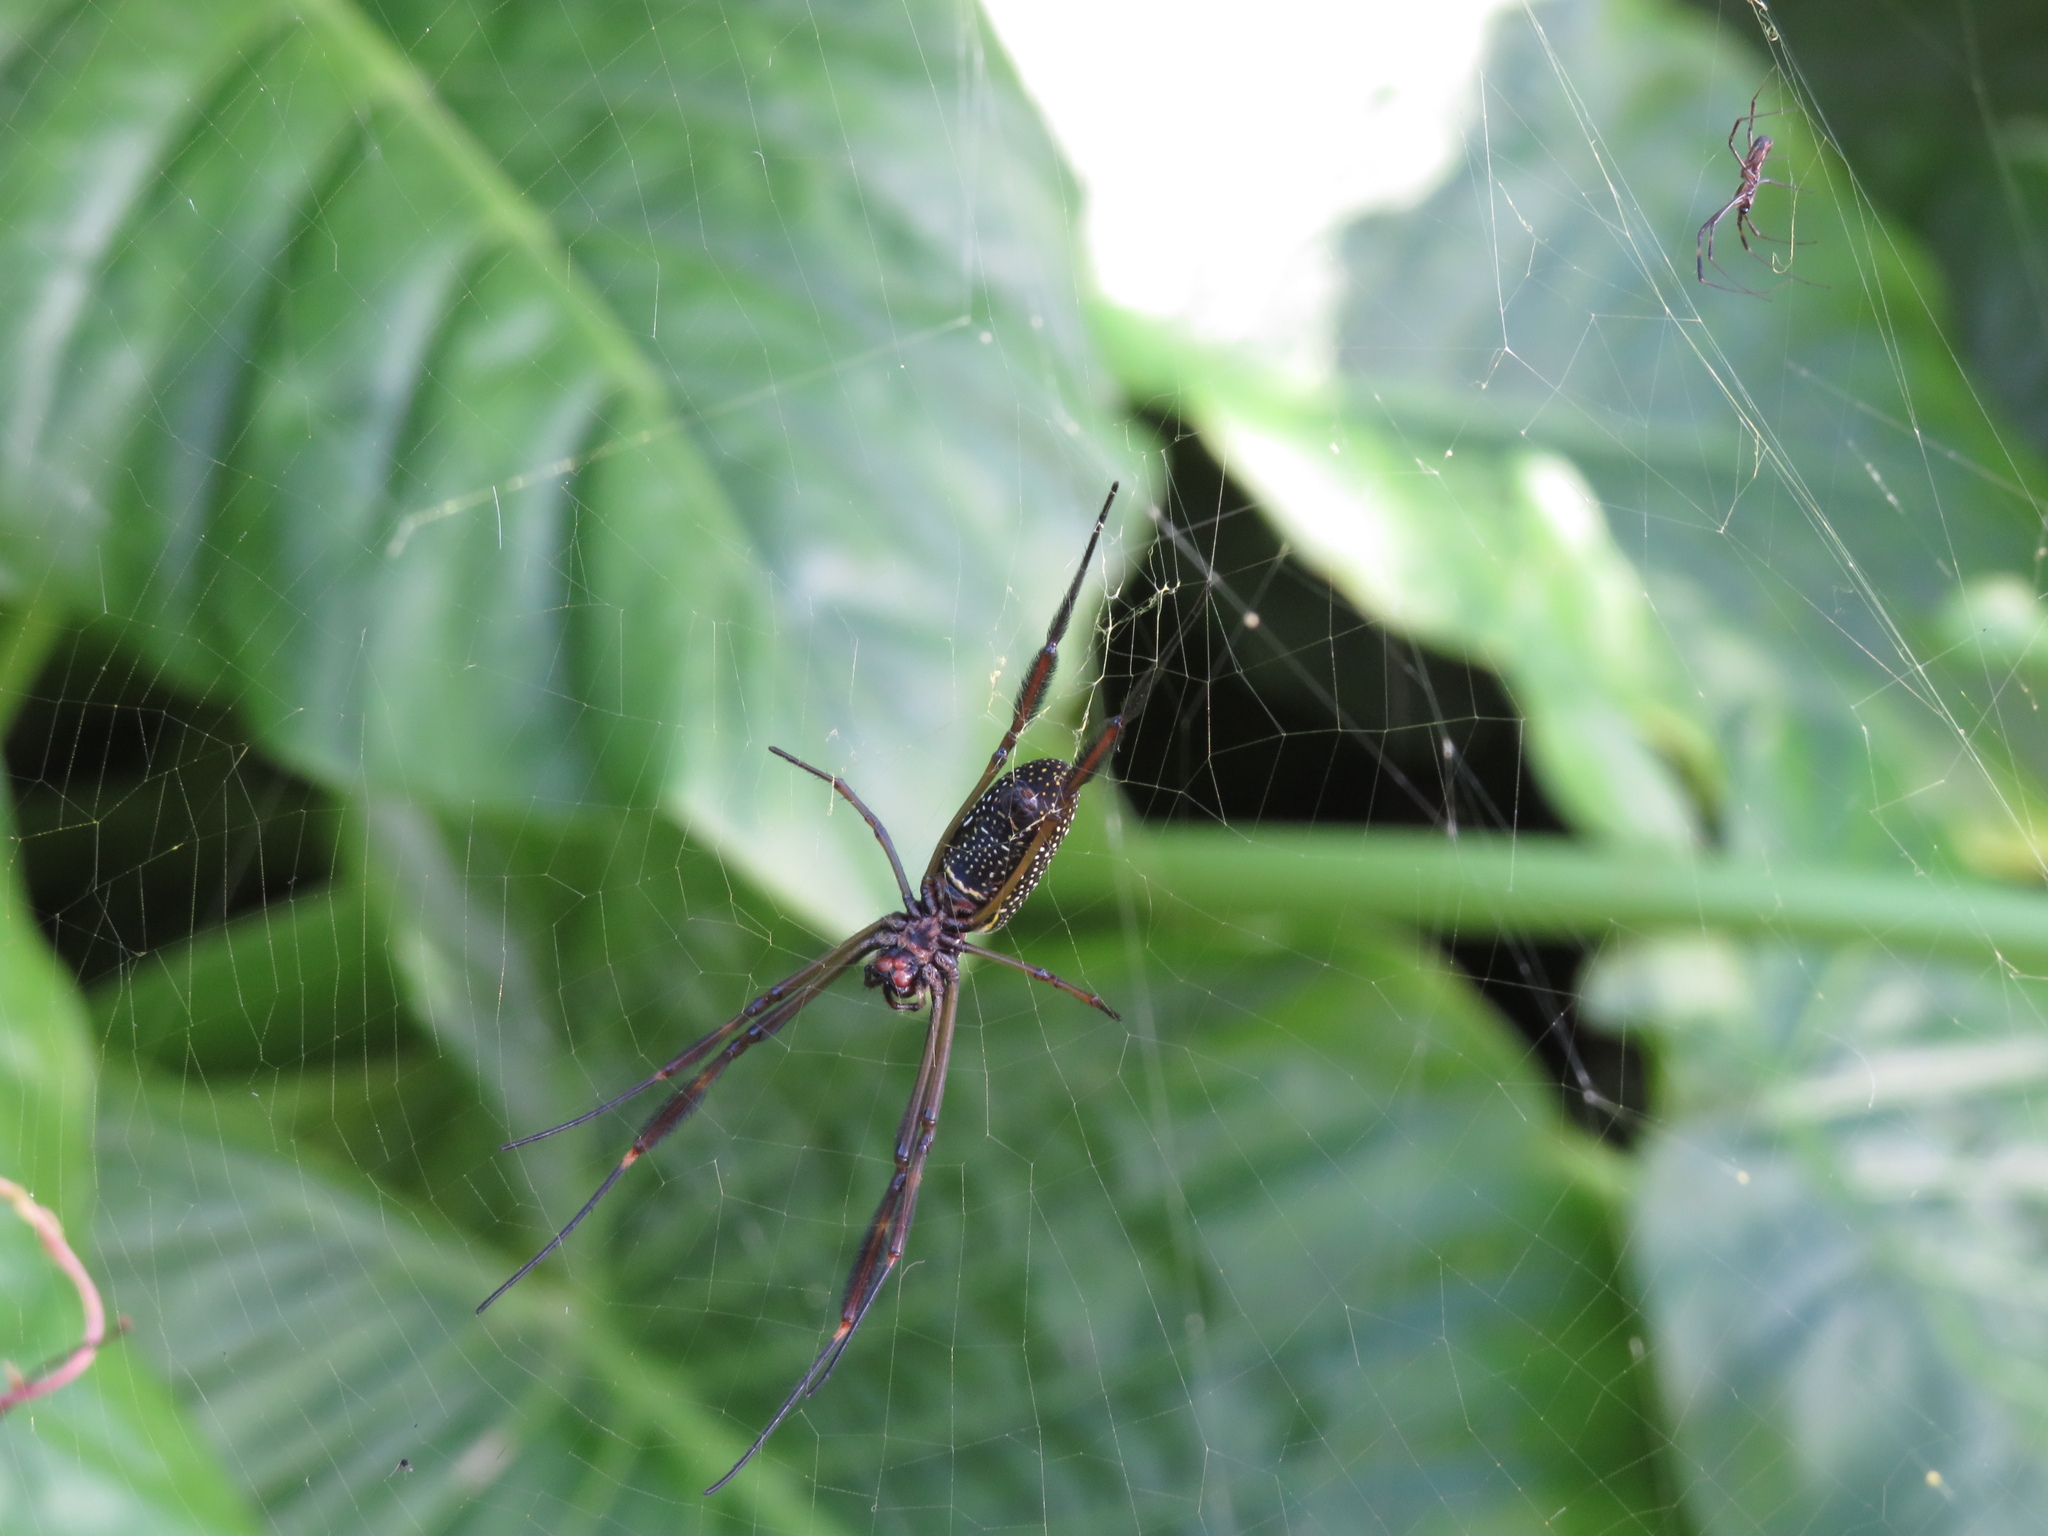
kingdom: Animalia
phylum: Arthropoda
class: Arachnida
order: Araneae
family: Araneidae
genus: Trichonephila
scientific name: Trichonephila clavipes
